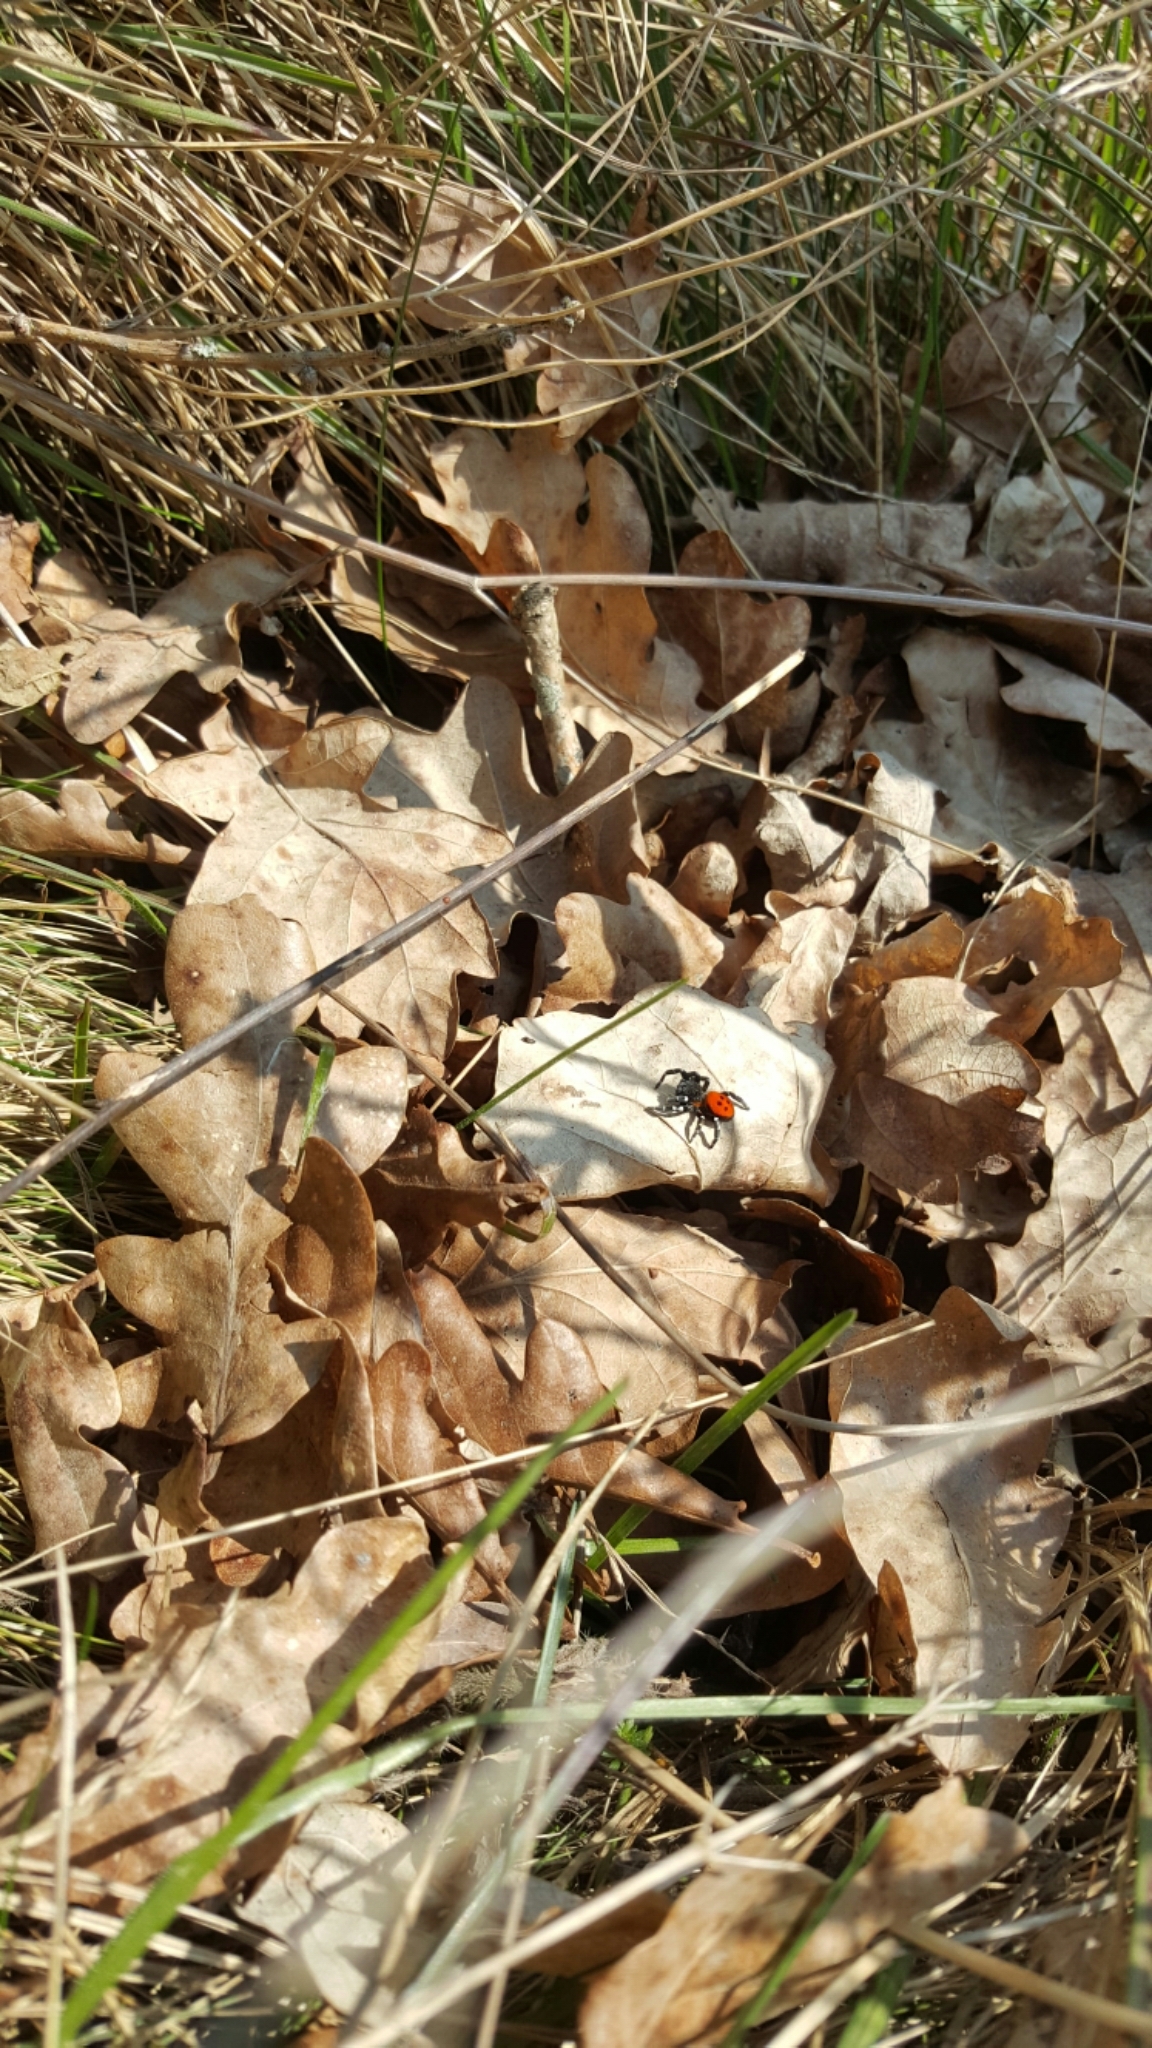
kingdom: Animalia
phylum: Arthropoda
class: Arachnida
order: Araneae
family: Eresidae
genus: Eresus
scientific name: Eresus sandaliatus
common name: Ladybird spider
